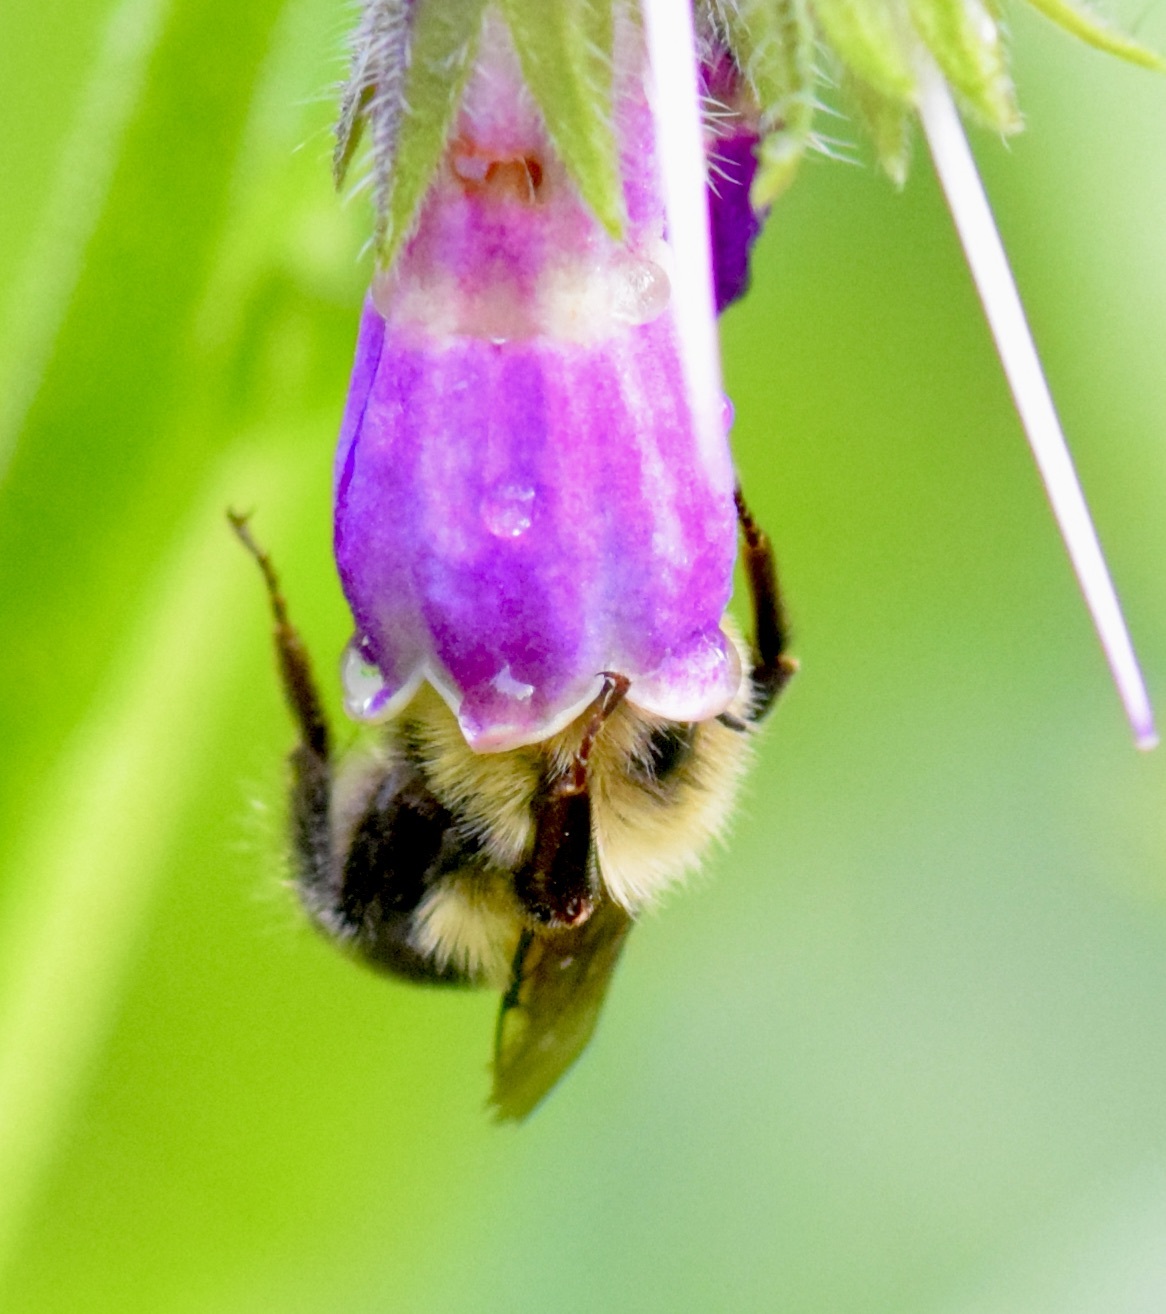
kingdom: Animalia
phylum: Arthropoda
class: Insecta
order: Hymenoptera
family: Apidae
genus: Bombus
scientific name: Bombus bimaculatus
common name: Two-spotted bumble bee
